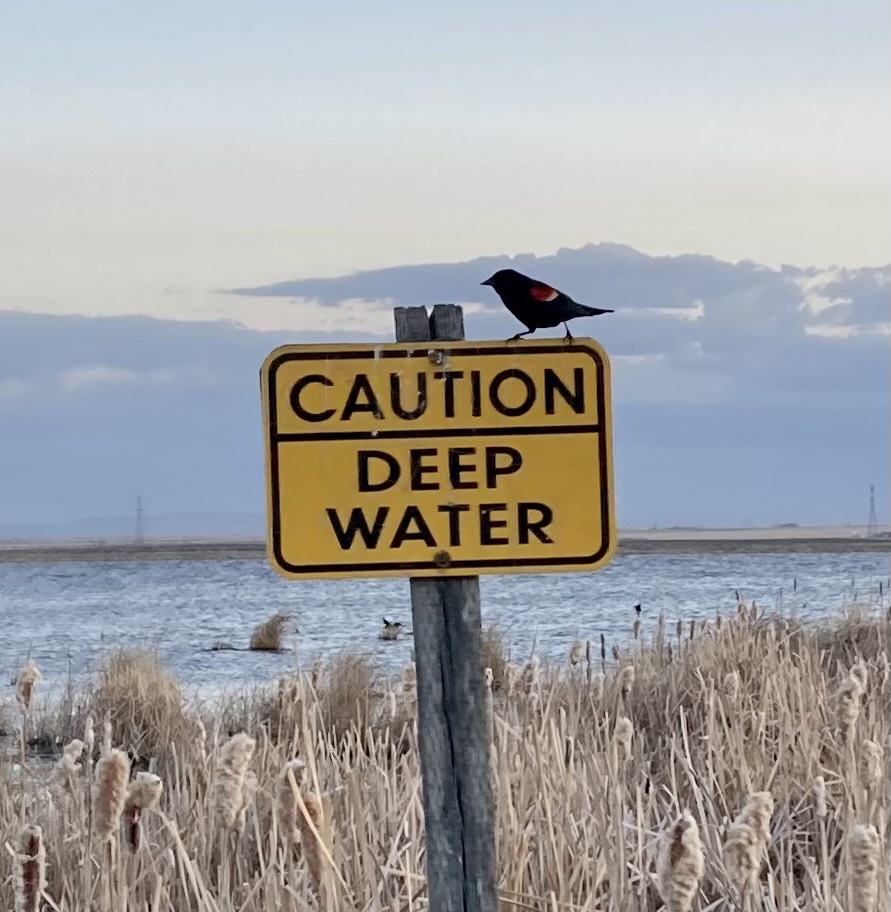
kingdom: Animalia
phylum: Chordata
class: Aves
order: Passeriformes
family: Icteridae
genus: Agelaius
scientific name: Agelaius phoeniceus
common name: Red-winged blackbird
